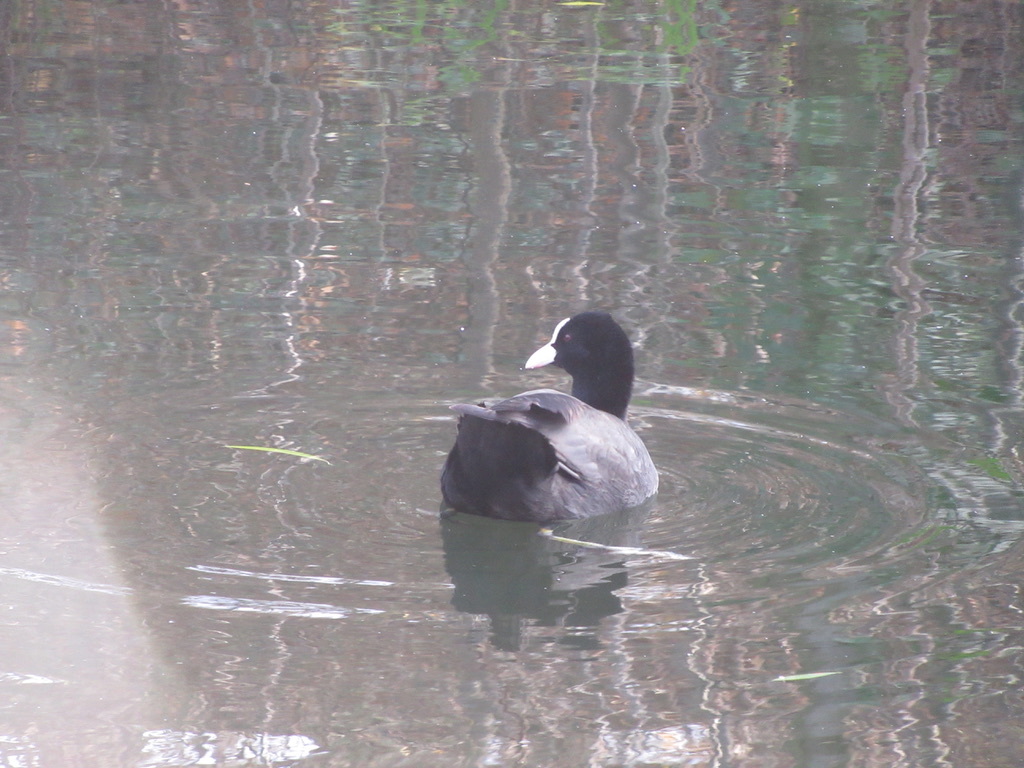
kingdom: Animalia
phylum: Chordata
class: Aves
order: Gruiformes
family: Rallidae
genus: Fulica
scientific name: Fulica atra
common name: Eurasian coot
